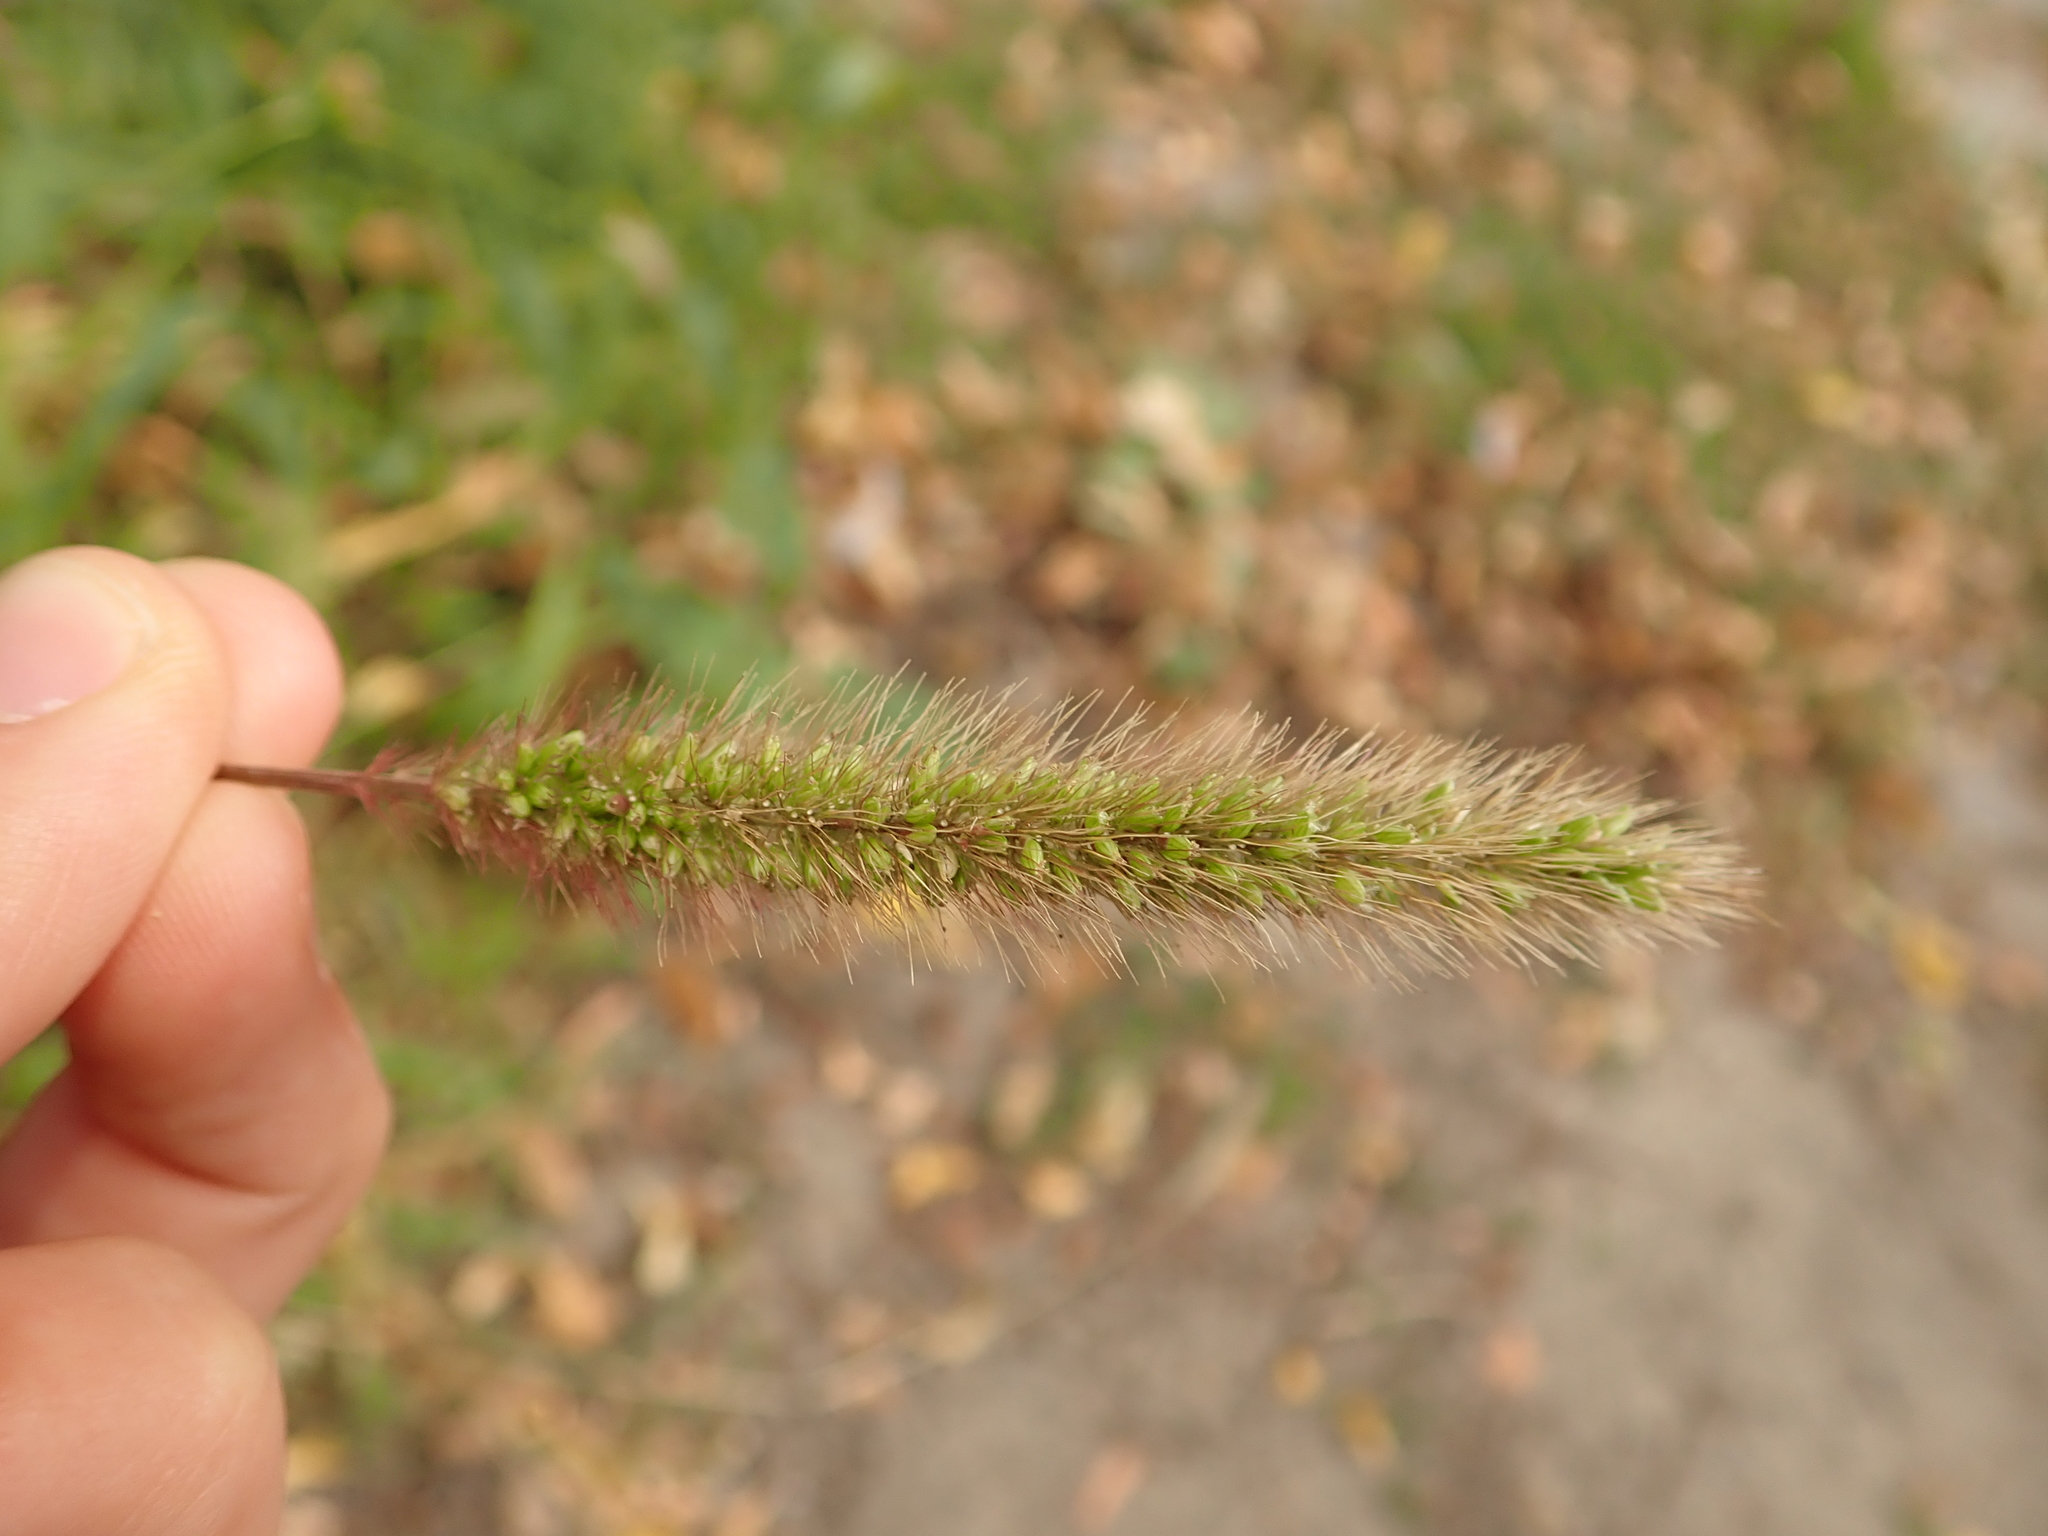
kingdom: Plantae
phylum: Tracheophyta
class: Liliopsida
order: Poales
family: Poaceae
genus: Setaria
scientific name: Setaria viridis
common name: Green bristlegrass
